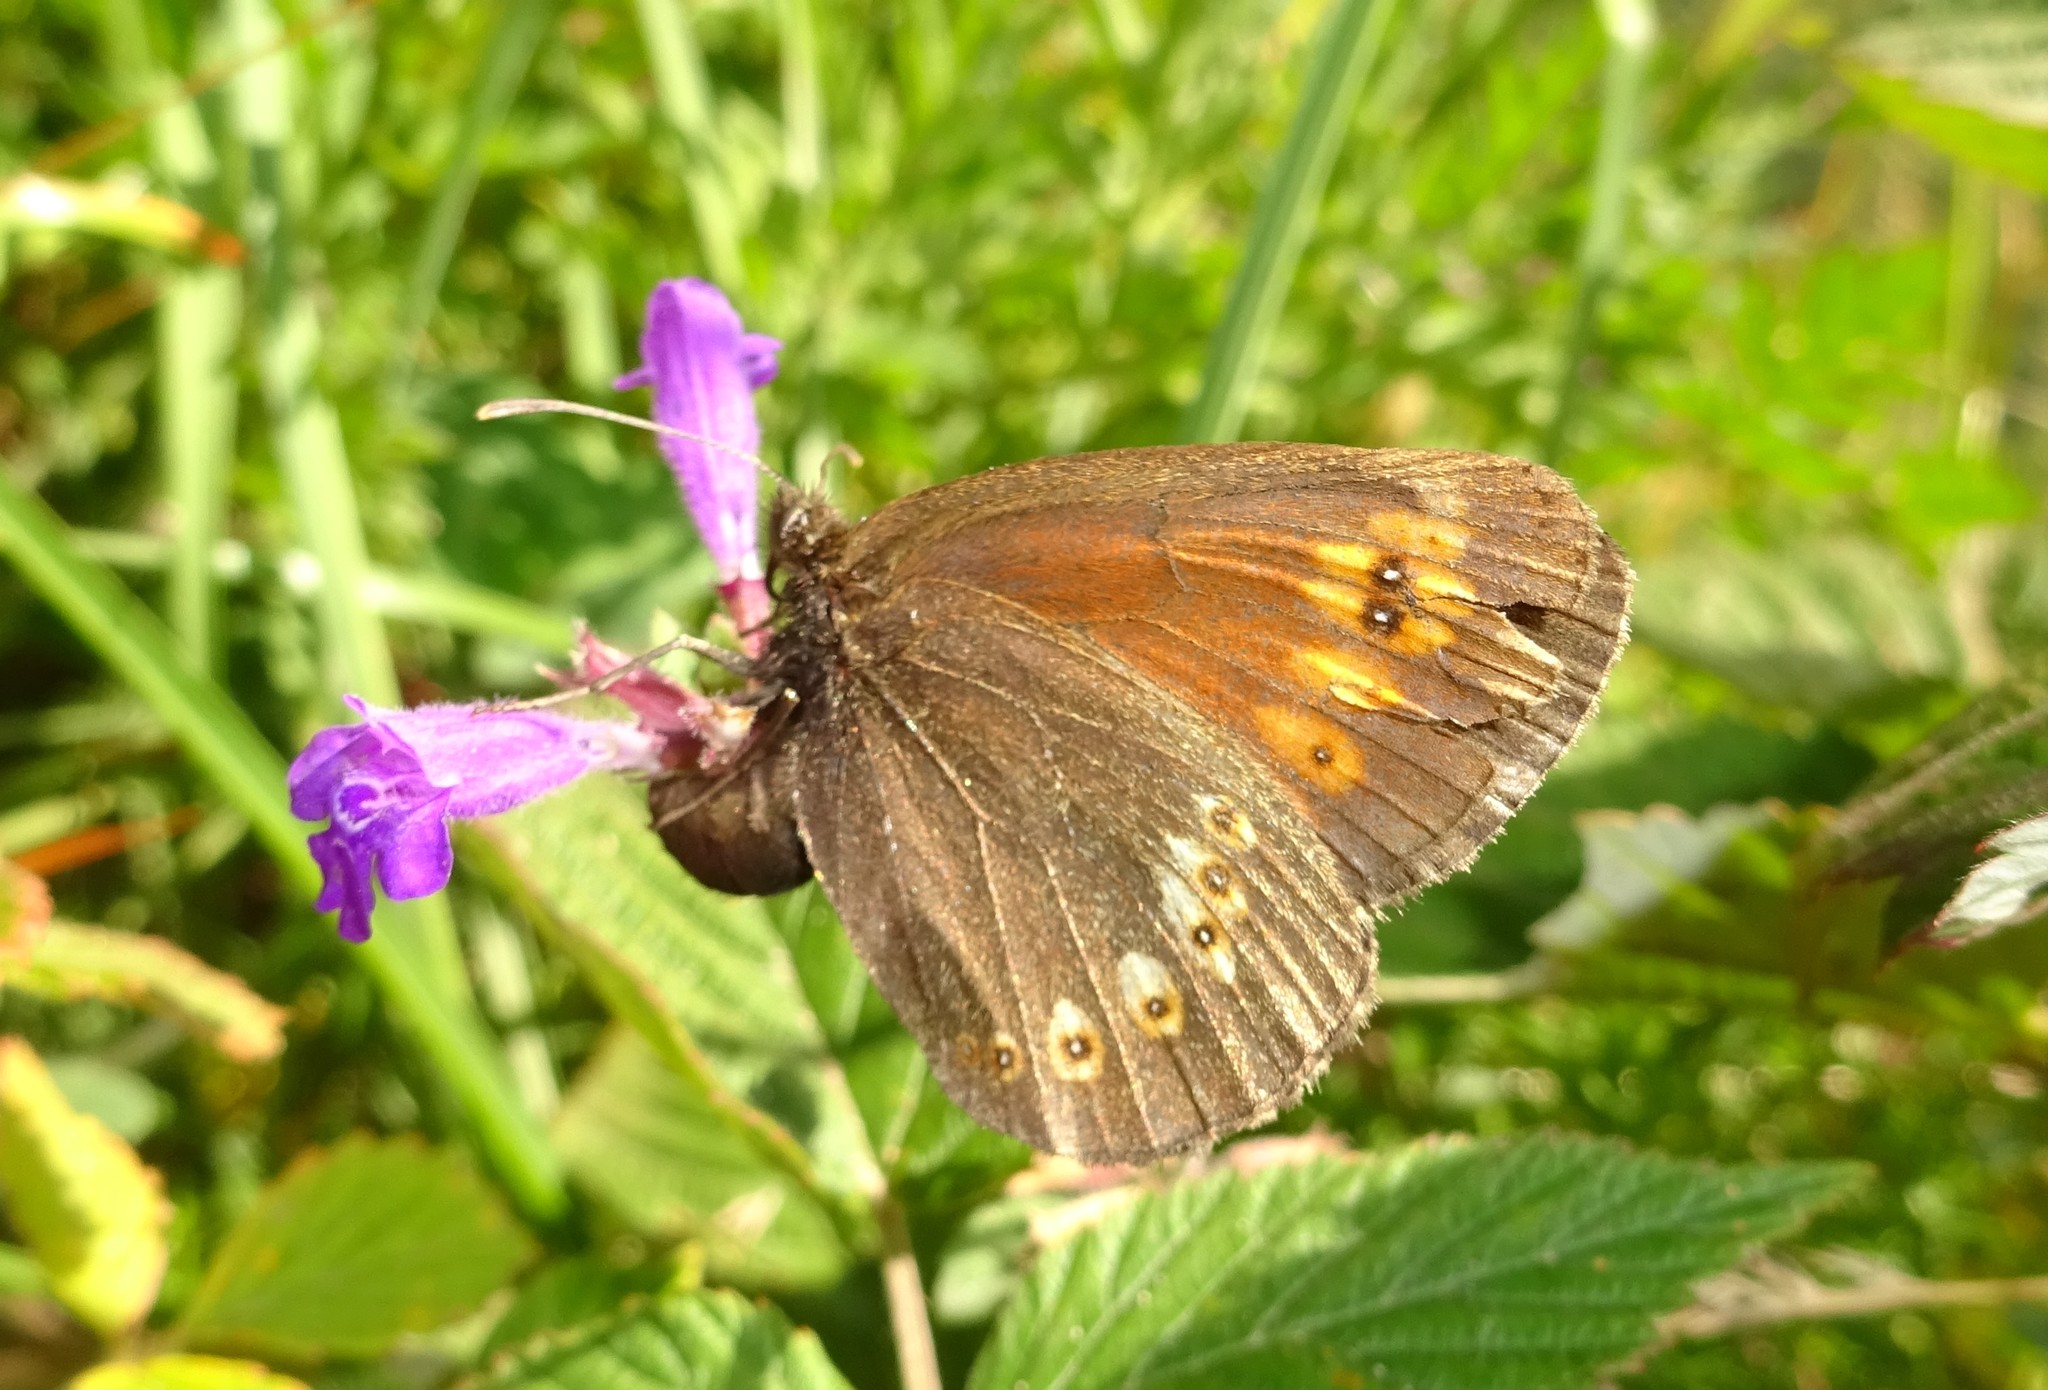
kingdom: Animalia
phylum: Arthropoda
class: Insecta
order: Lepidoptera
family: Nymphalidae
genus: Erebia
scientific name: Erebia alberganus
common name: Almond-eyed ringlet
